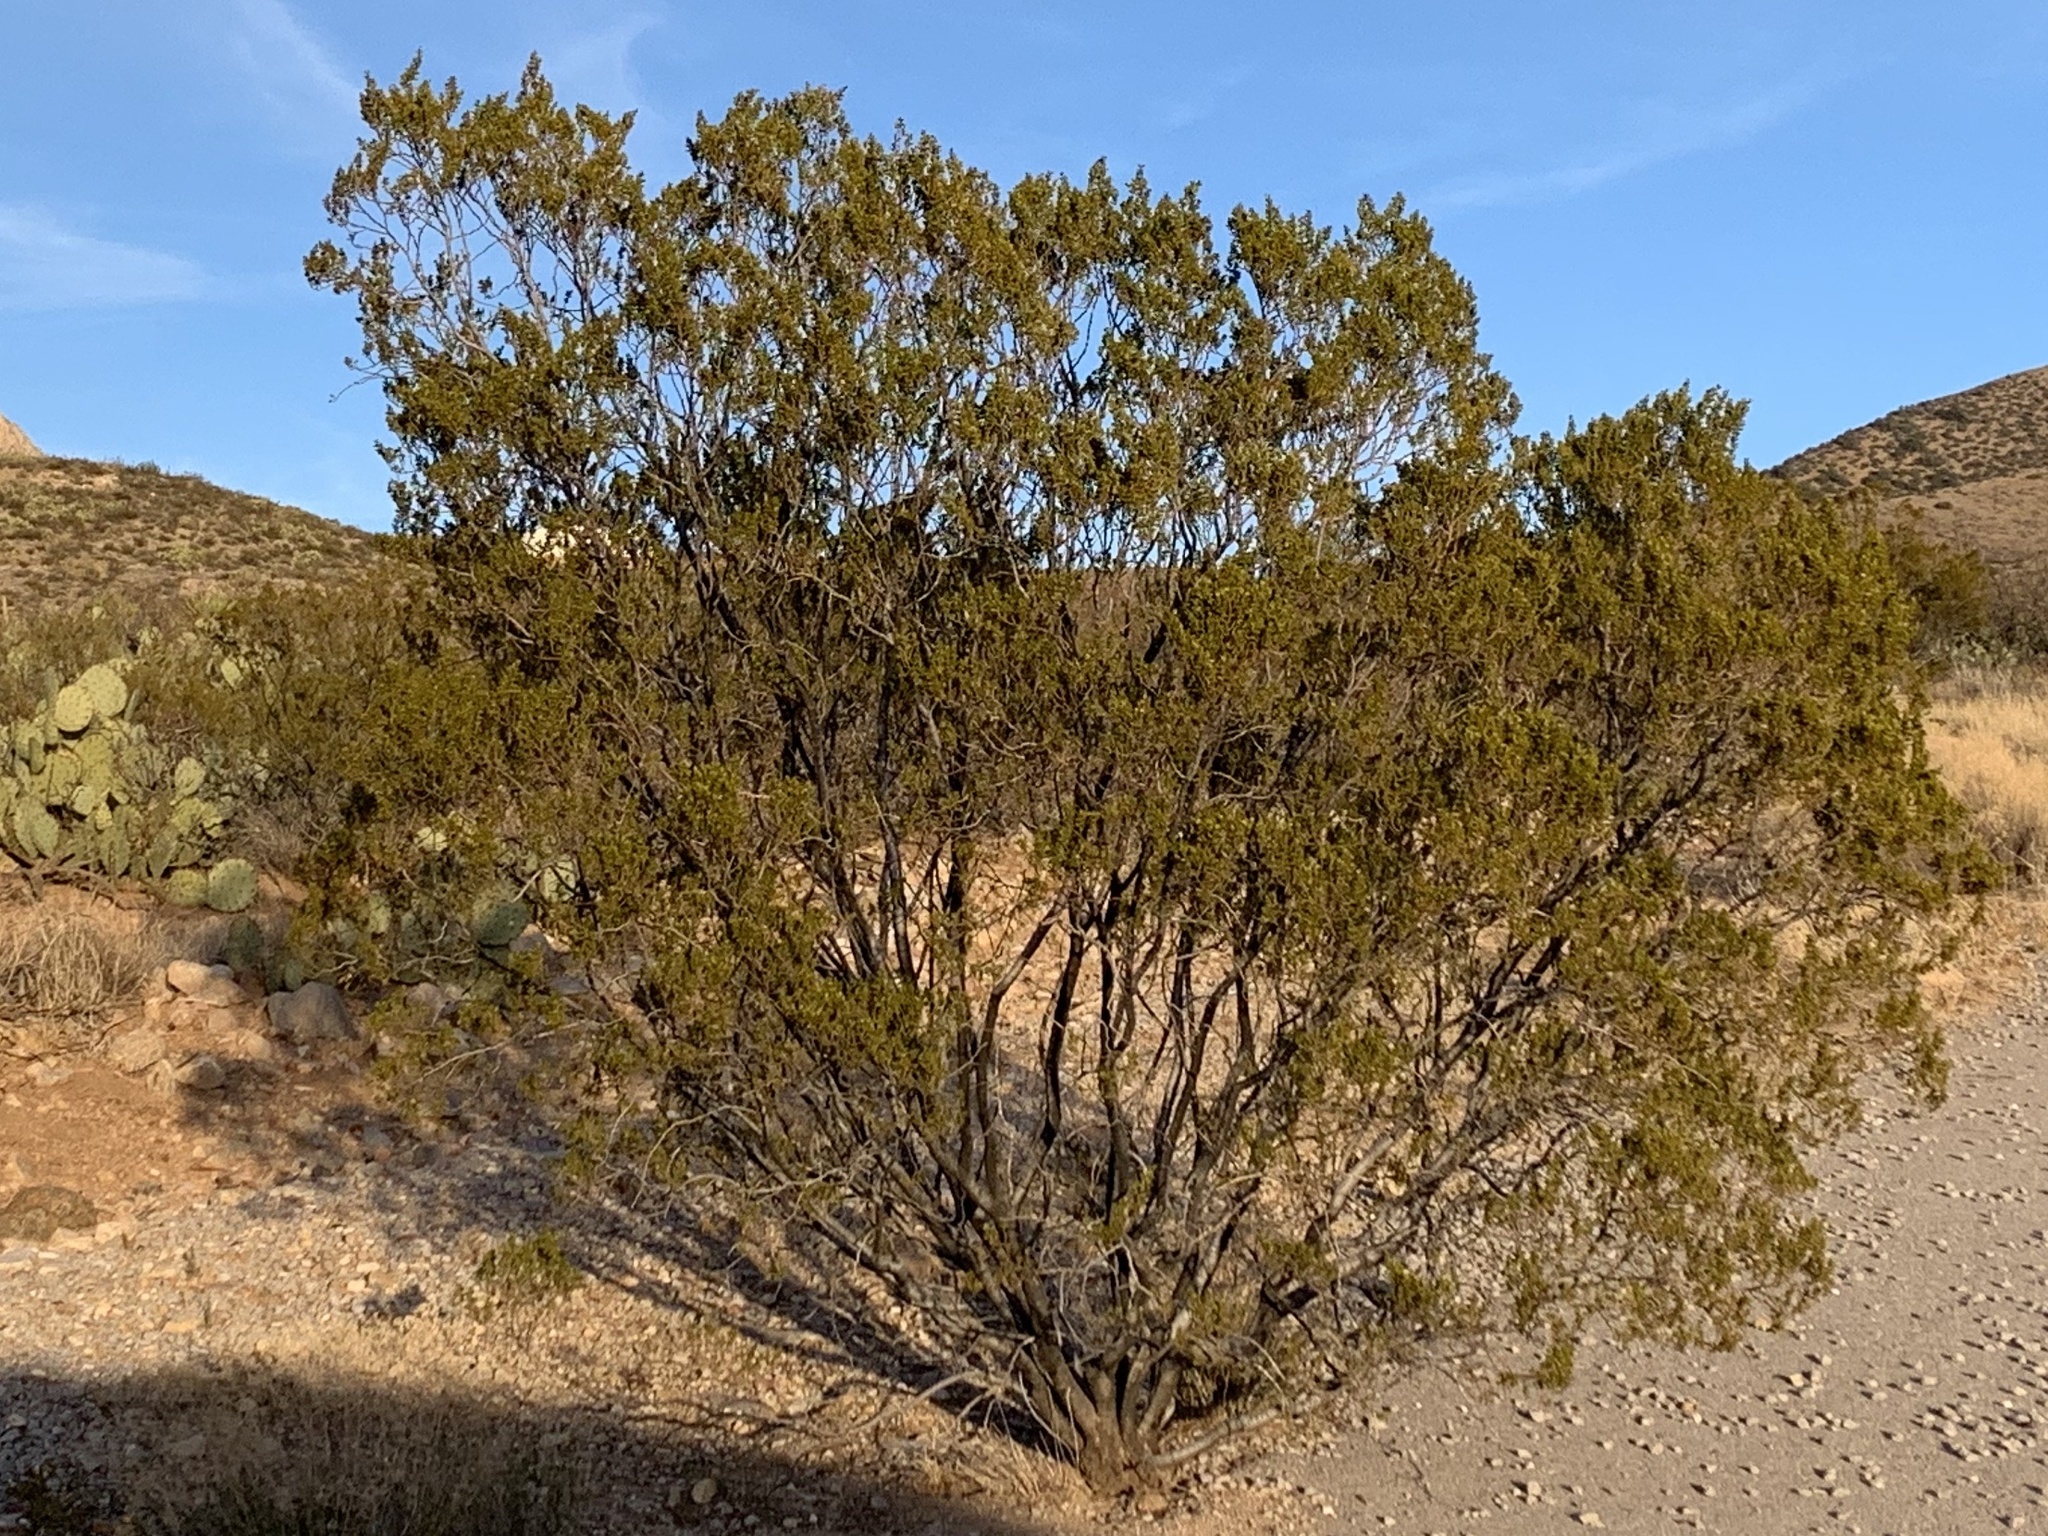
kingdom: Plantae
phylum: Tracheophyta
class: Magnoliopsida
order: Zygophyllales
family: Zygophyllaceae
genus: Larrea
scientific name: Larrea tridentata
